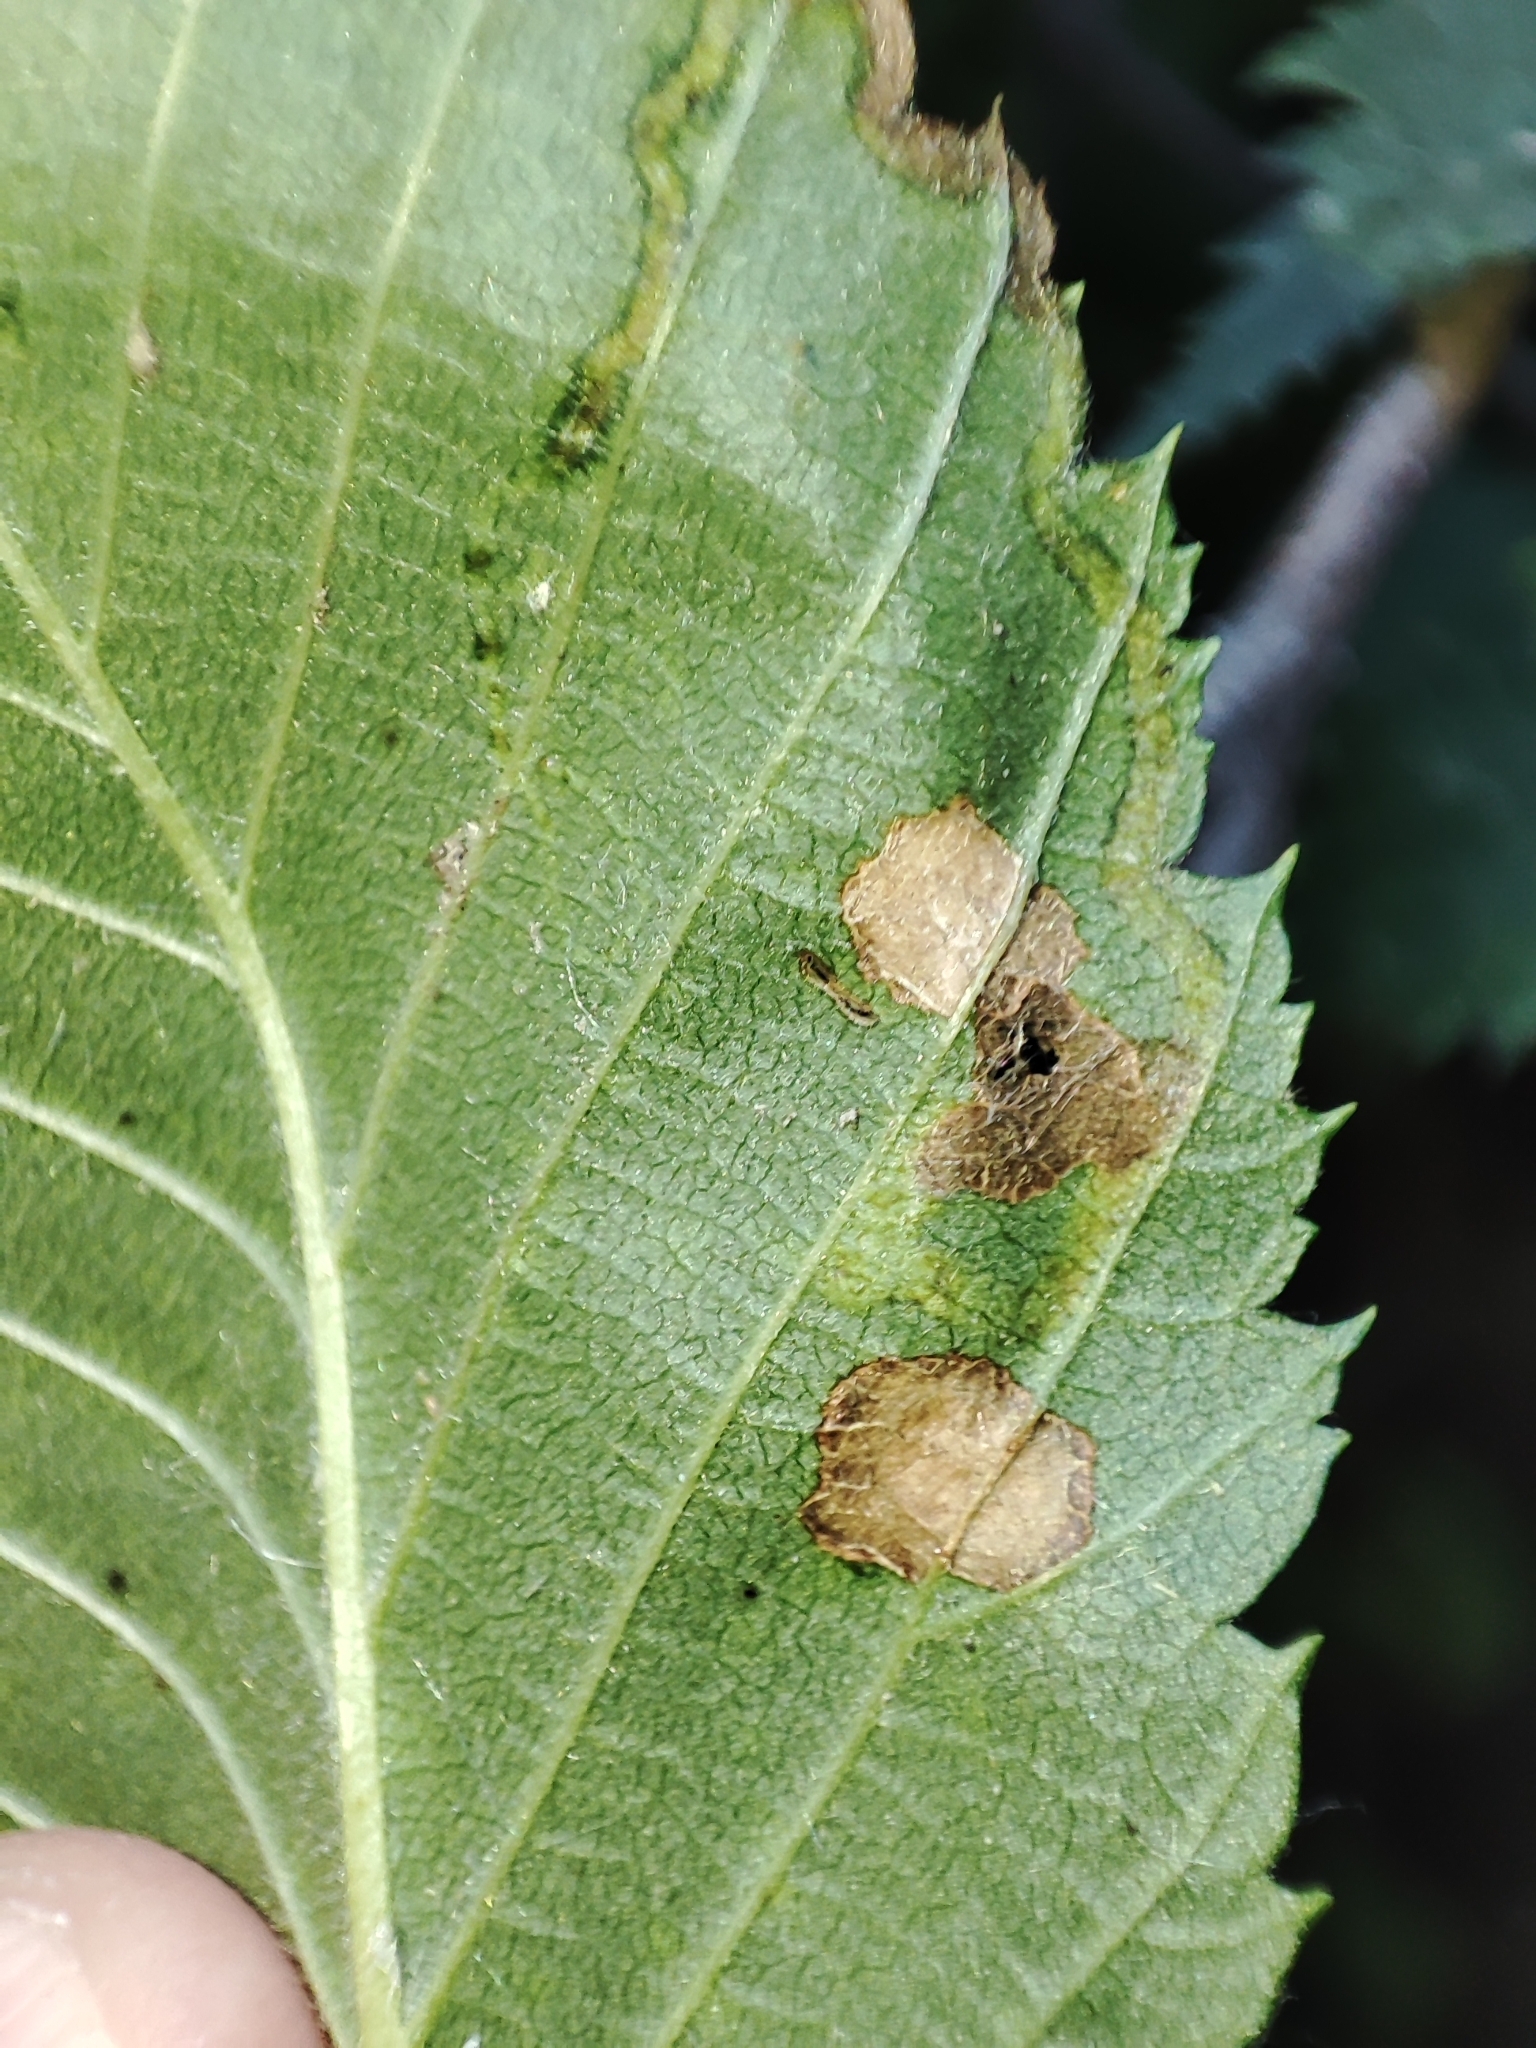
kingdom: Plantae
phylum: Tracheophyta
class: Magnoliopsida
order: Rosales
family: Ulmaceae
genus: Ulmus
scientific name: Ulmus laevis
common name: European white-elm
